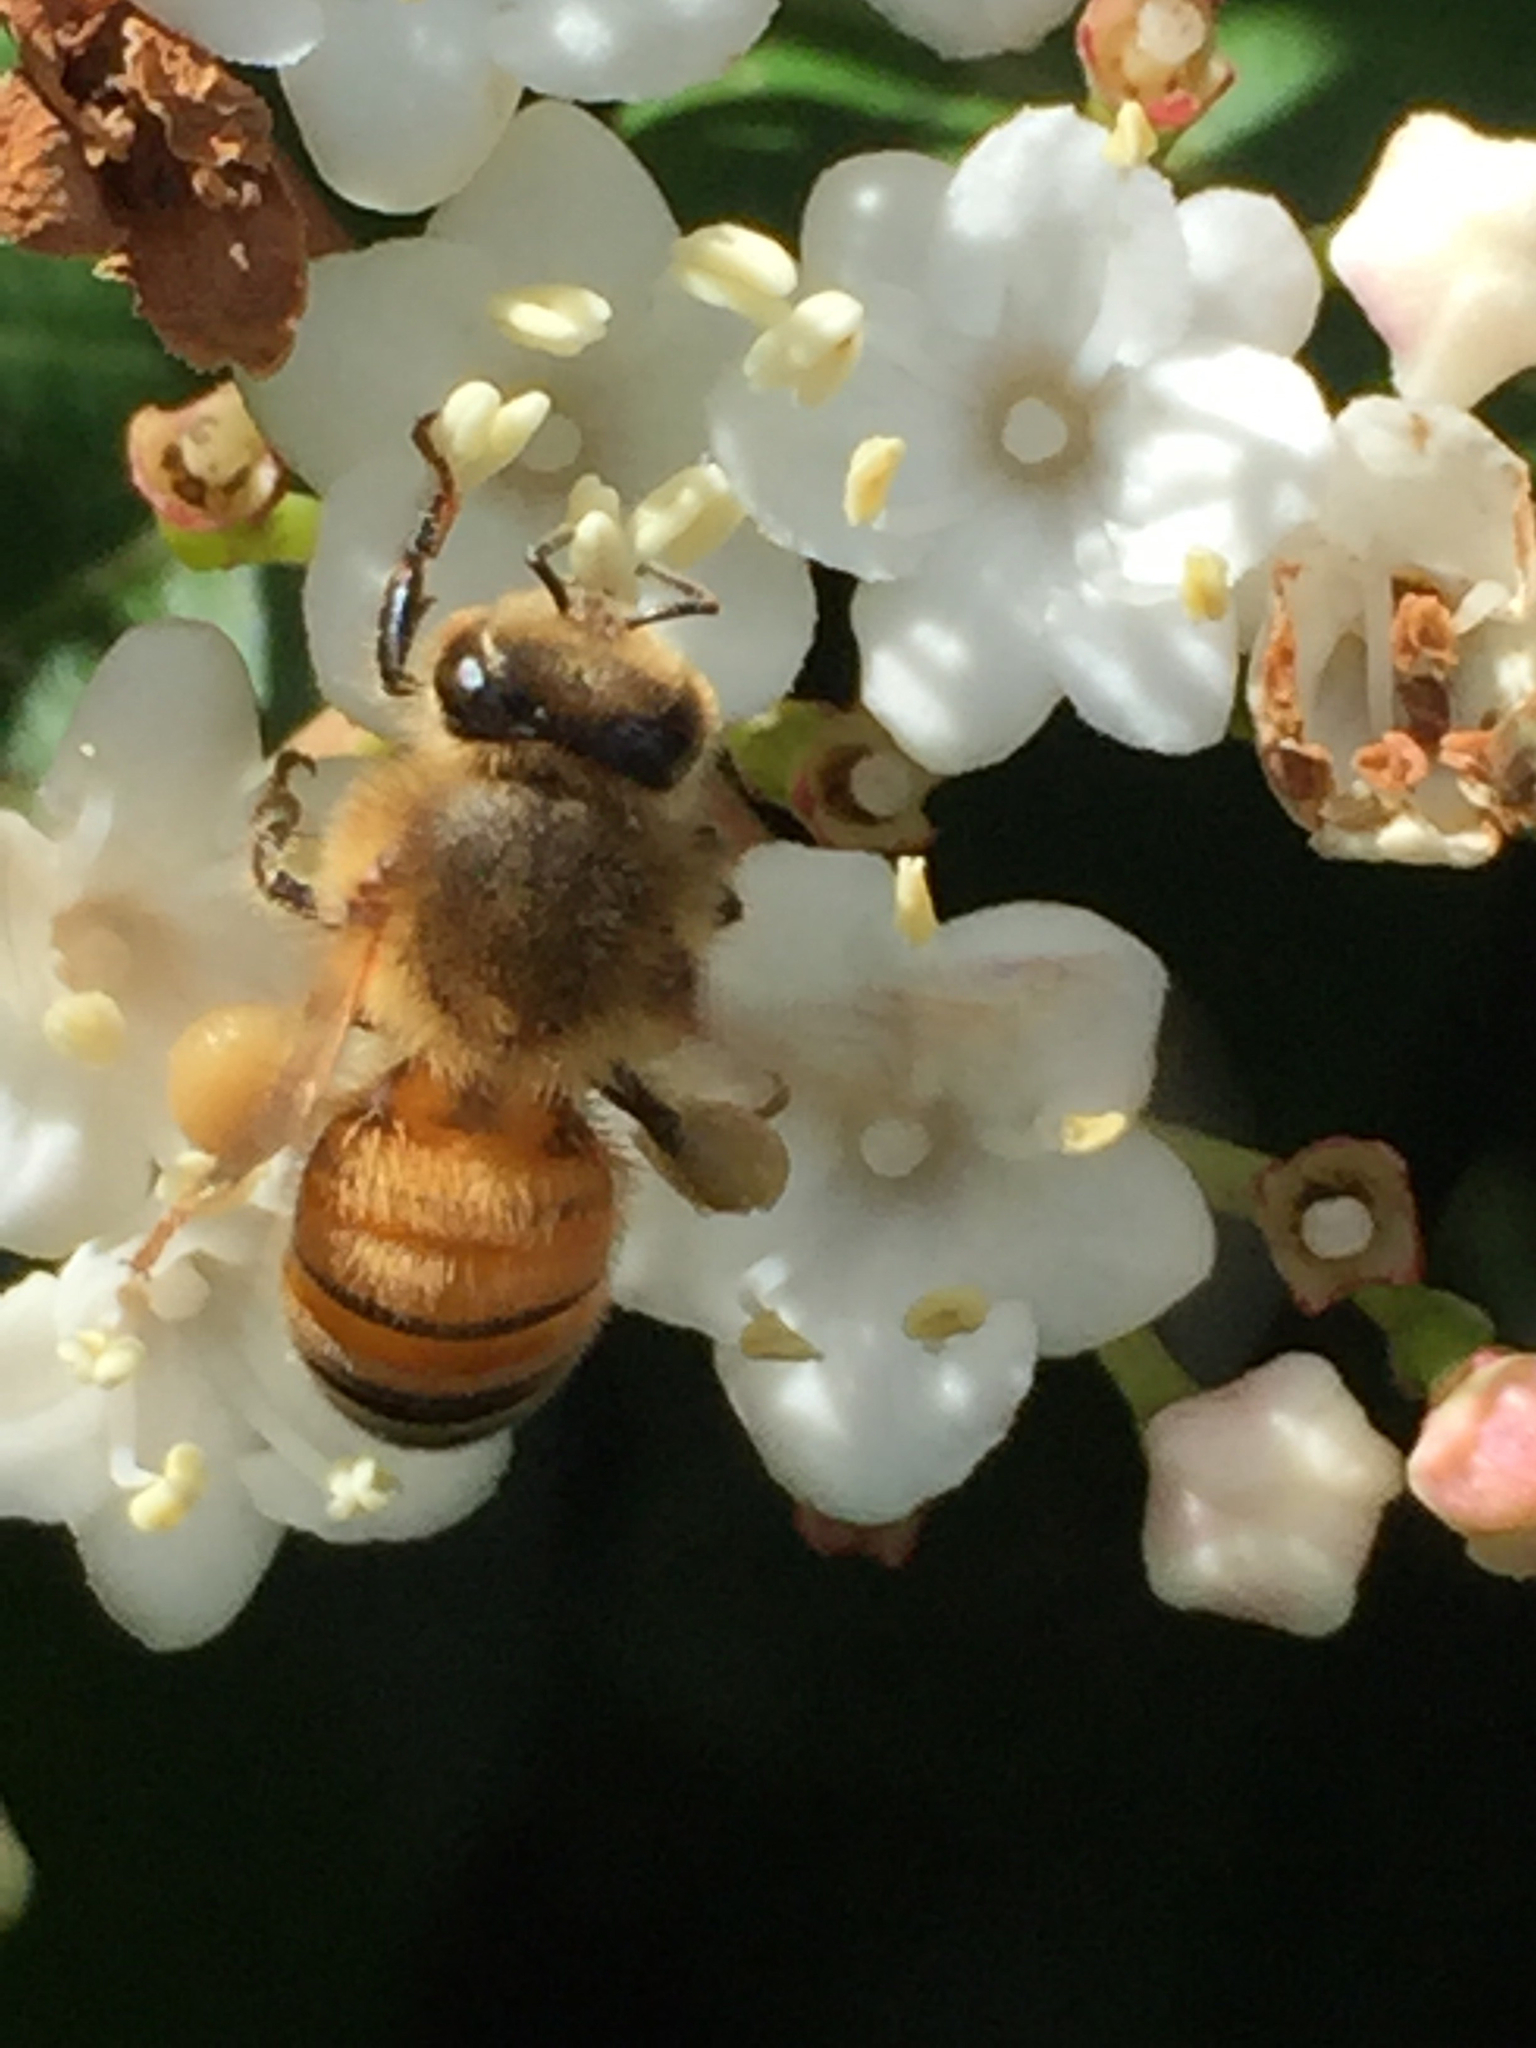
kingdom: Animalia
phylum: Arthropoda
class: Insecta
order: Hymenoptera
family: Apidae
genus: Apis
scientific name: Apis mellifera
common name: Honey bee
